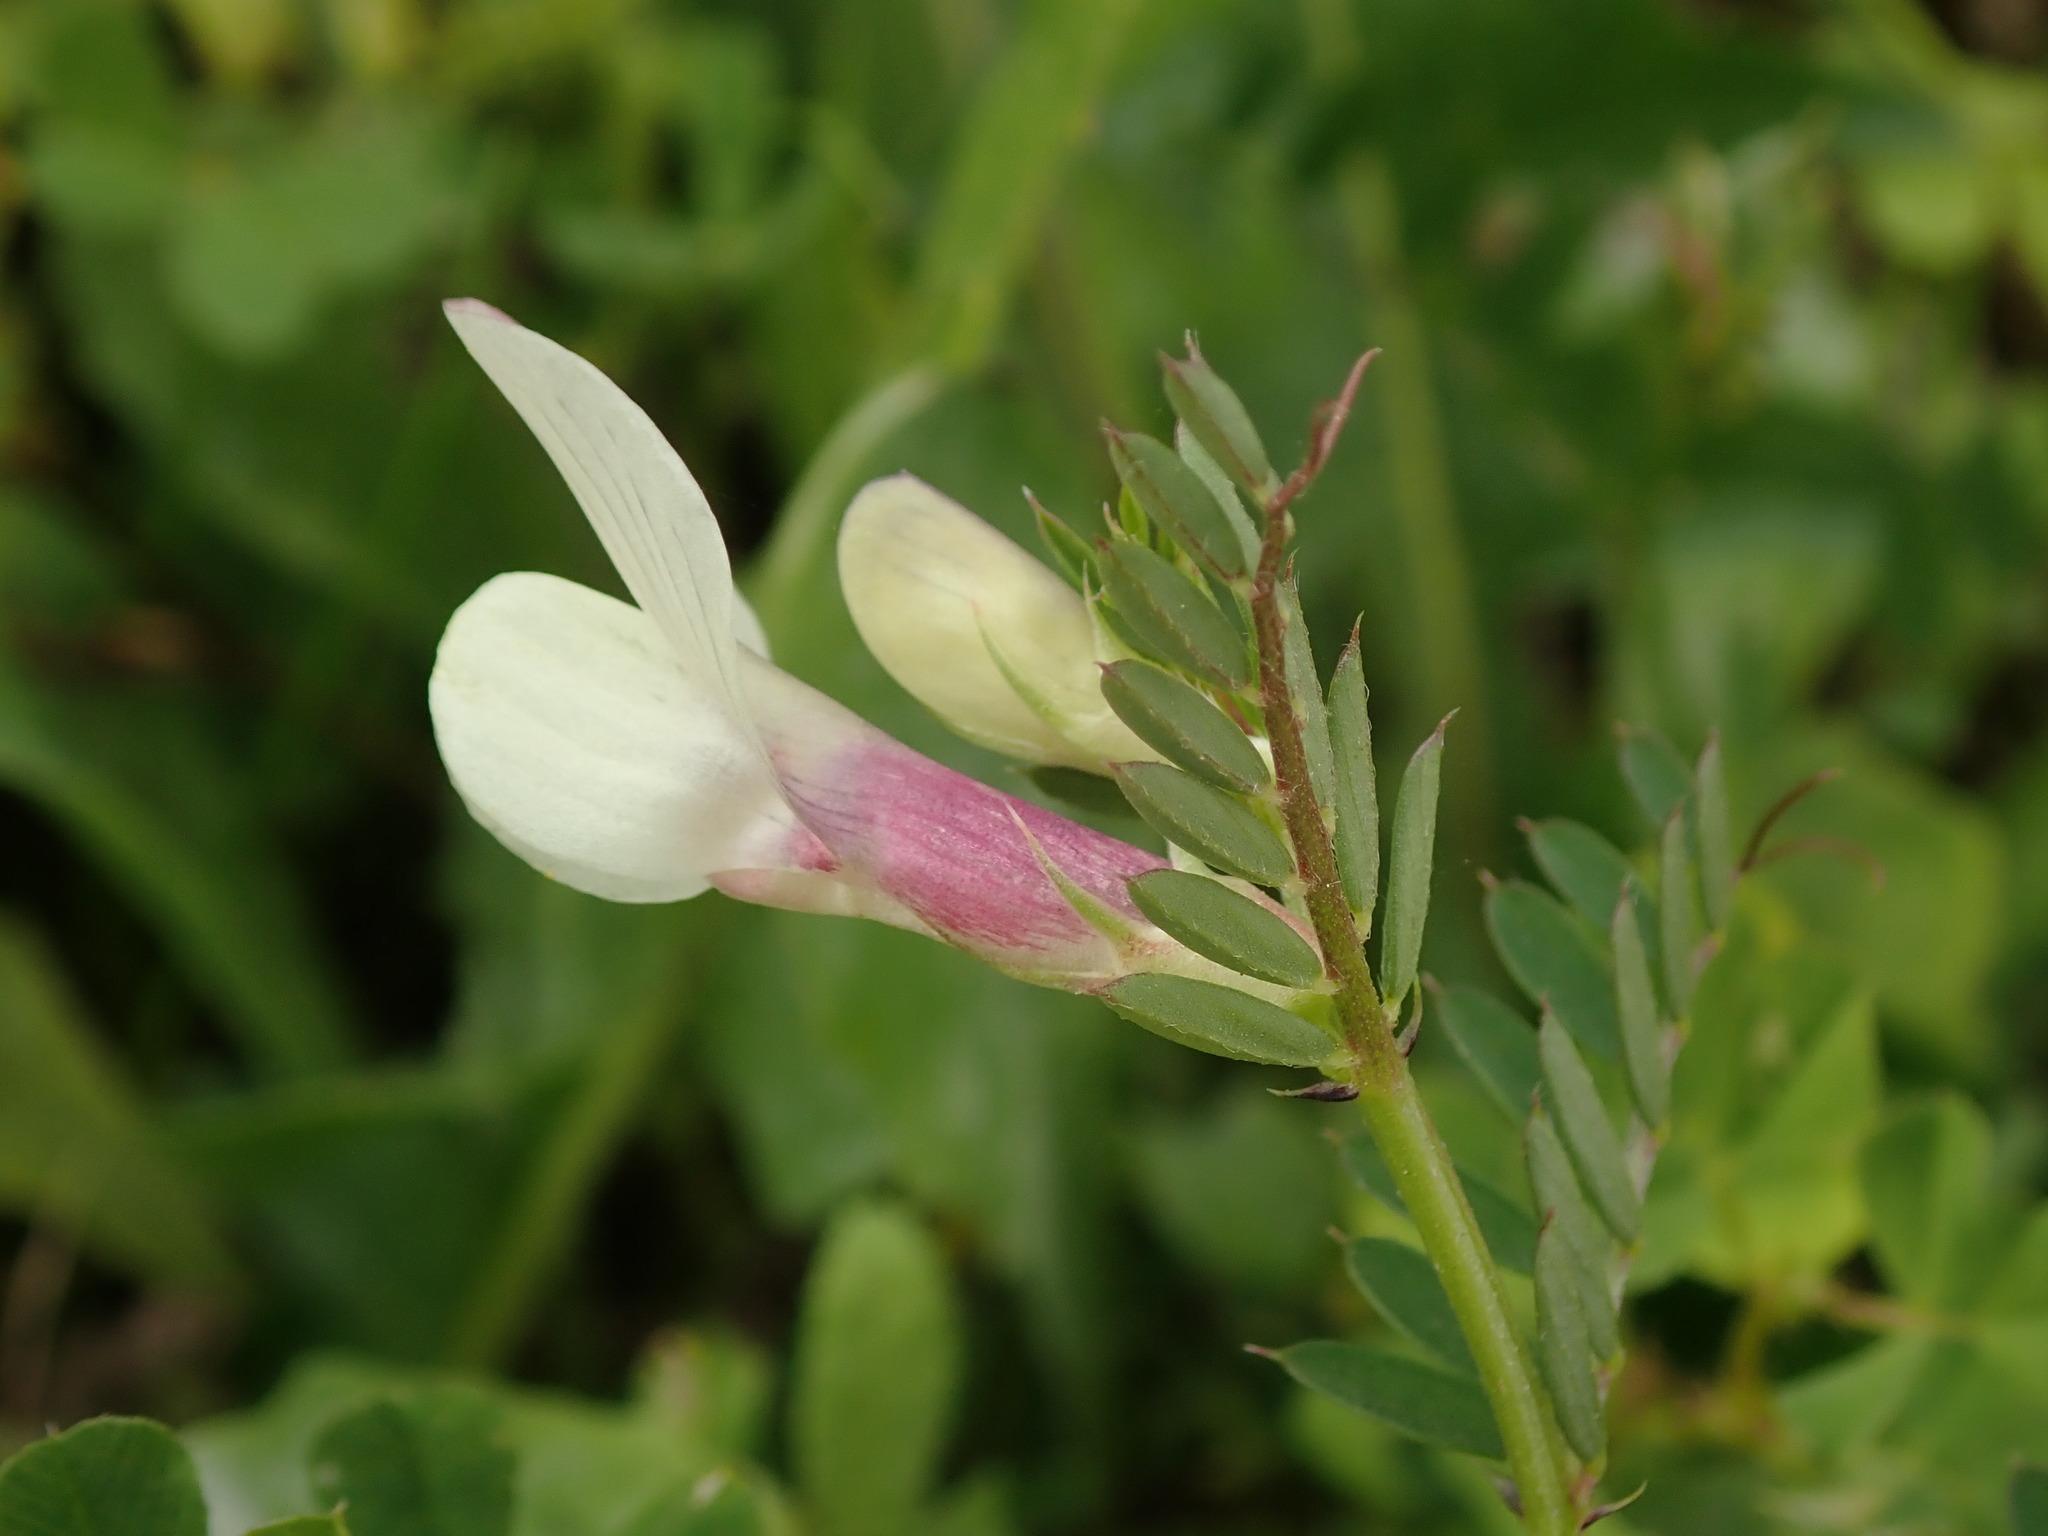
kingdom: Plantae
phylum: Tracheophyta
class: Magnoliopsida
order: Fabales
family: Fabaceae
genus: Vicia
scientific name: Vicia lutea
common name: Smooth yellow vetch
